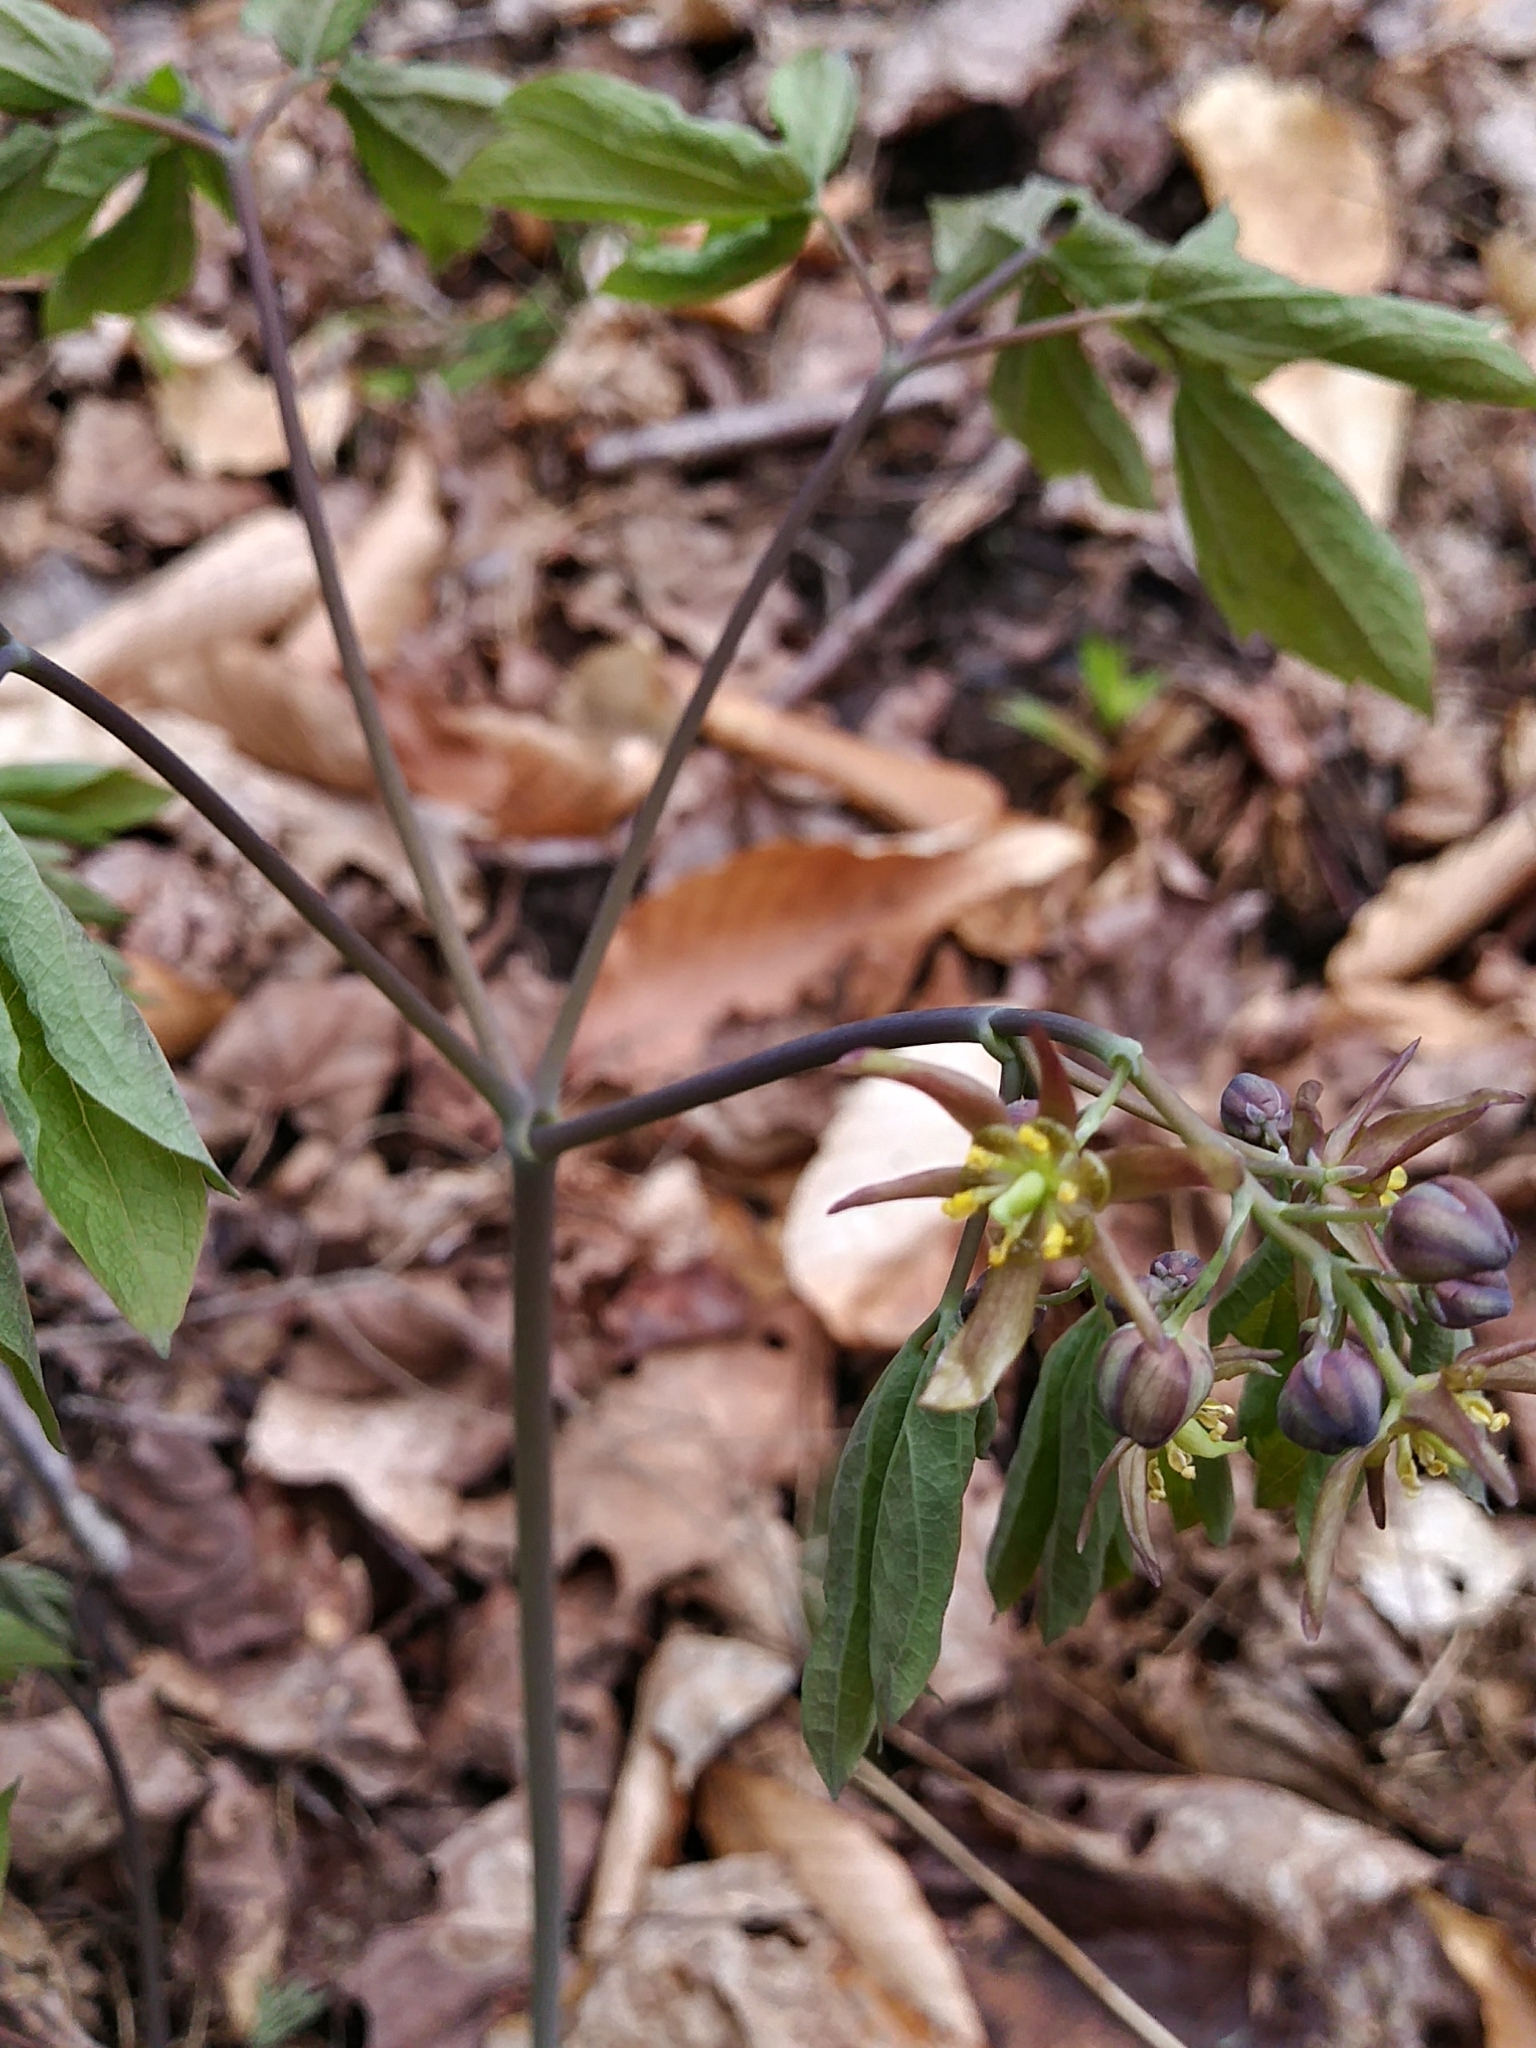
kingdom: Plantae
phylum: Tracheophyta
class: Magnoliopsida
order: Ranunculales
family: Berberidaceae
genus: Caulophyllum
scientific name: Caulophyllum giganteum
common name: Blue cohosh
